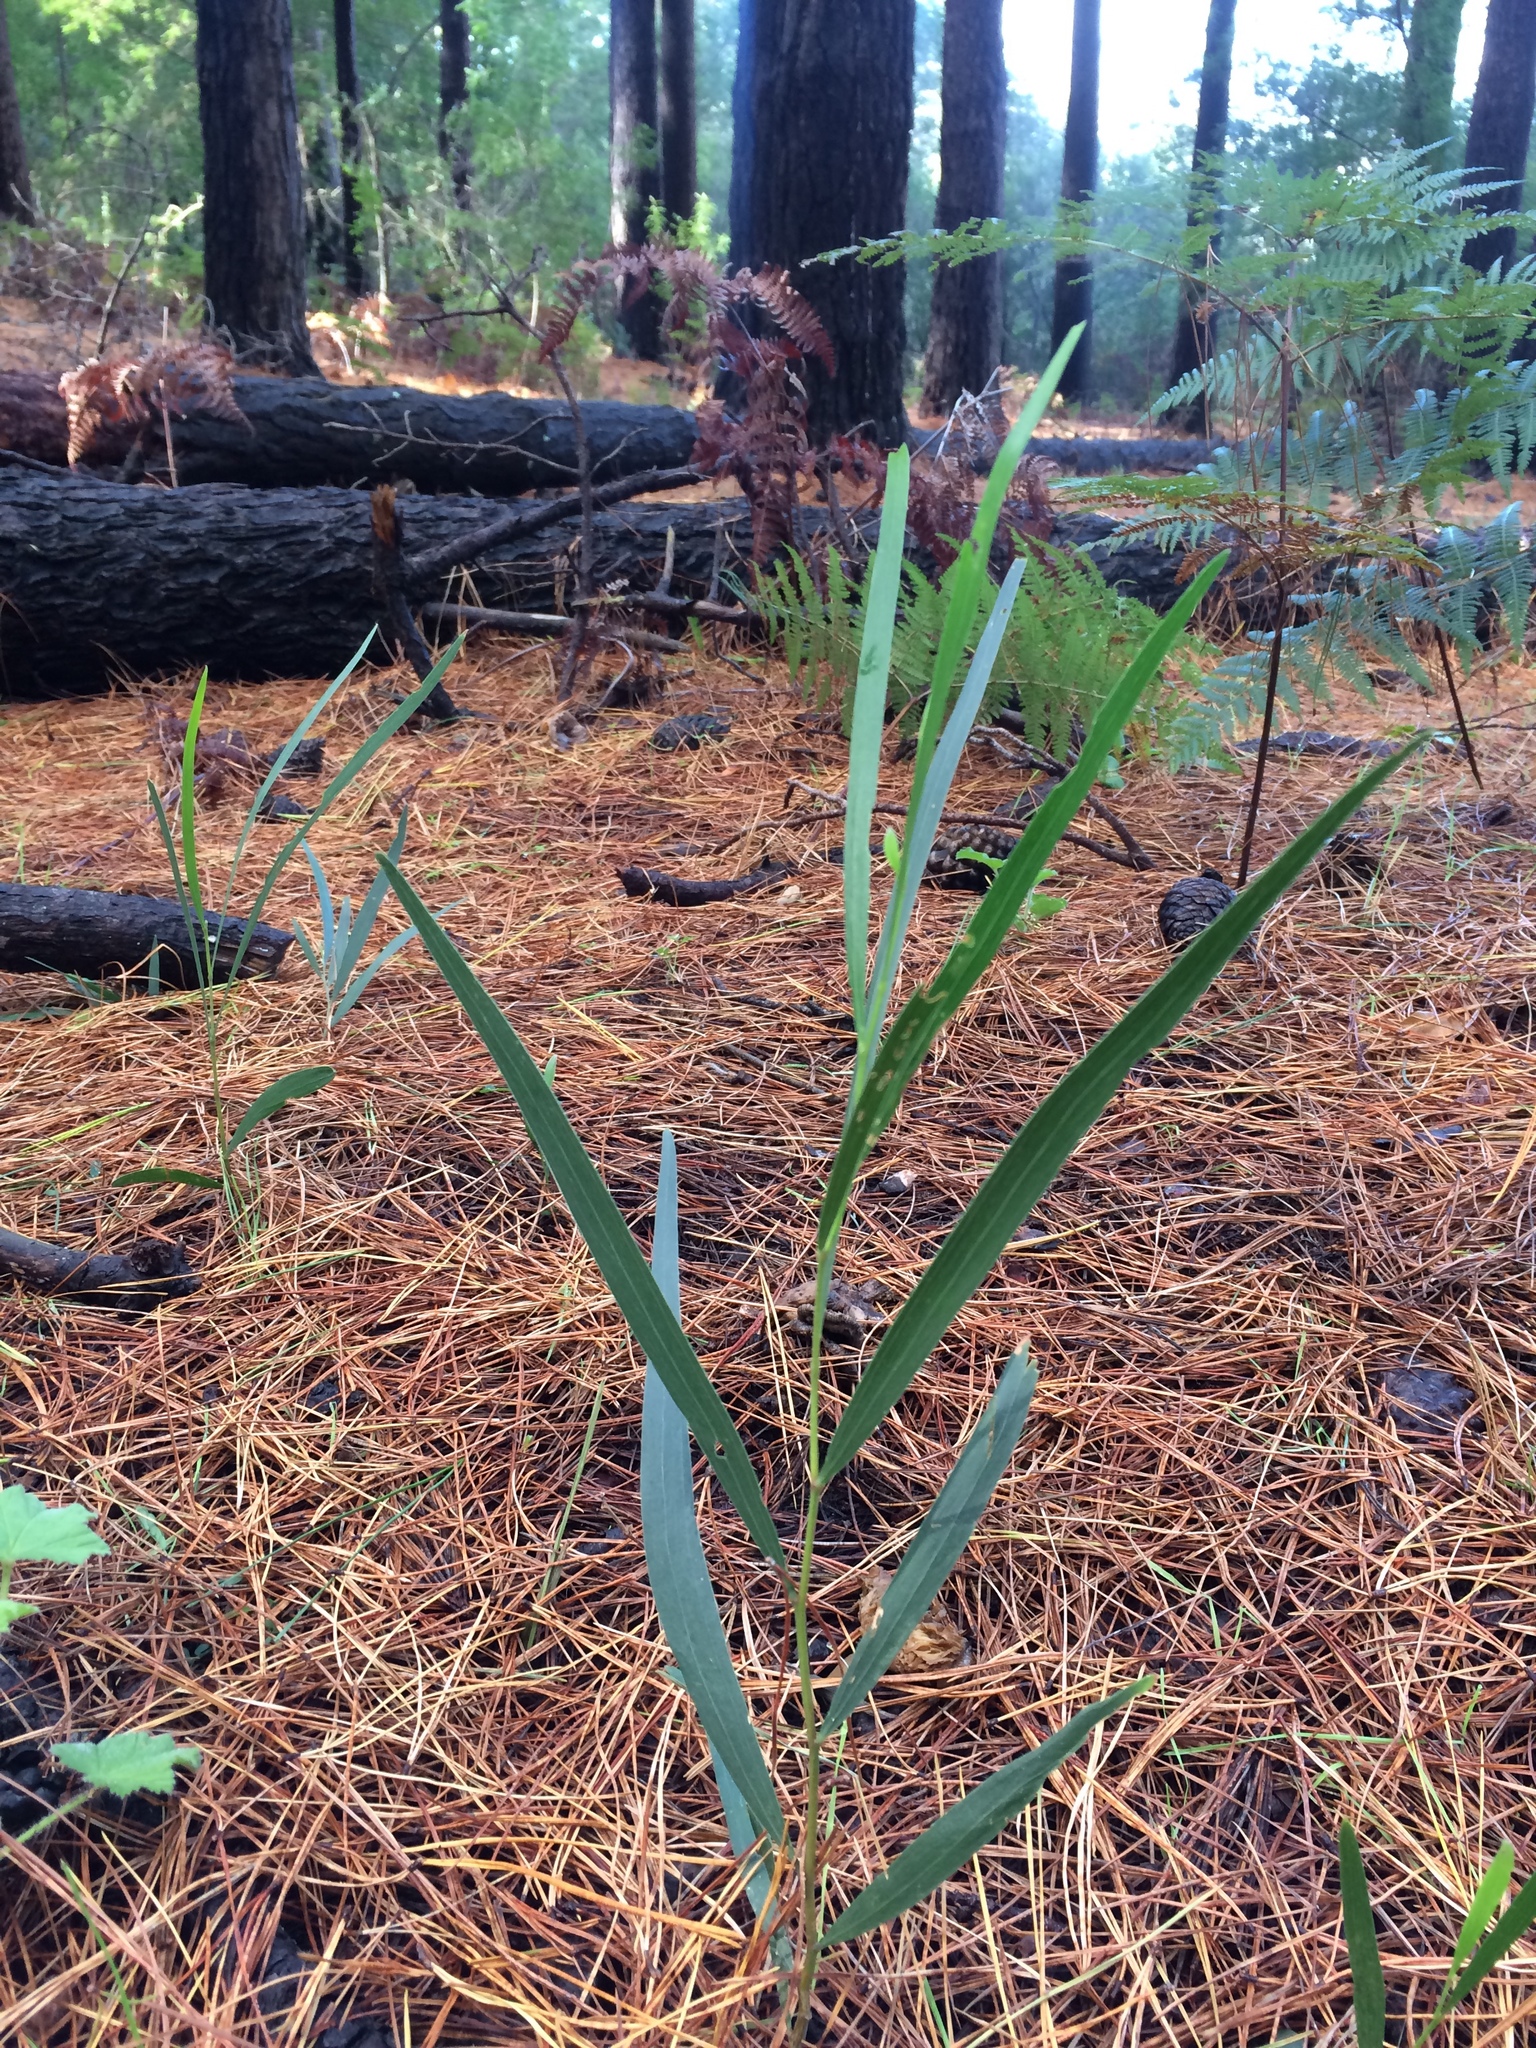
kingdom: Plantae
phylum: Tracheophyta
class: Magnoliopsida
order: Fabales
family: Fabaceae
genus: Acacia
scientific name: Acacia longifolia
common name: Sydney golden wattle
